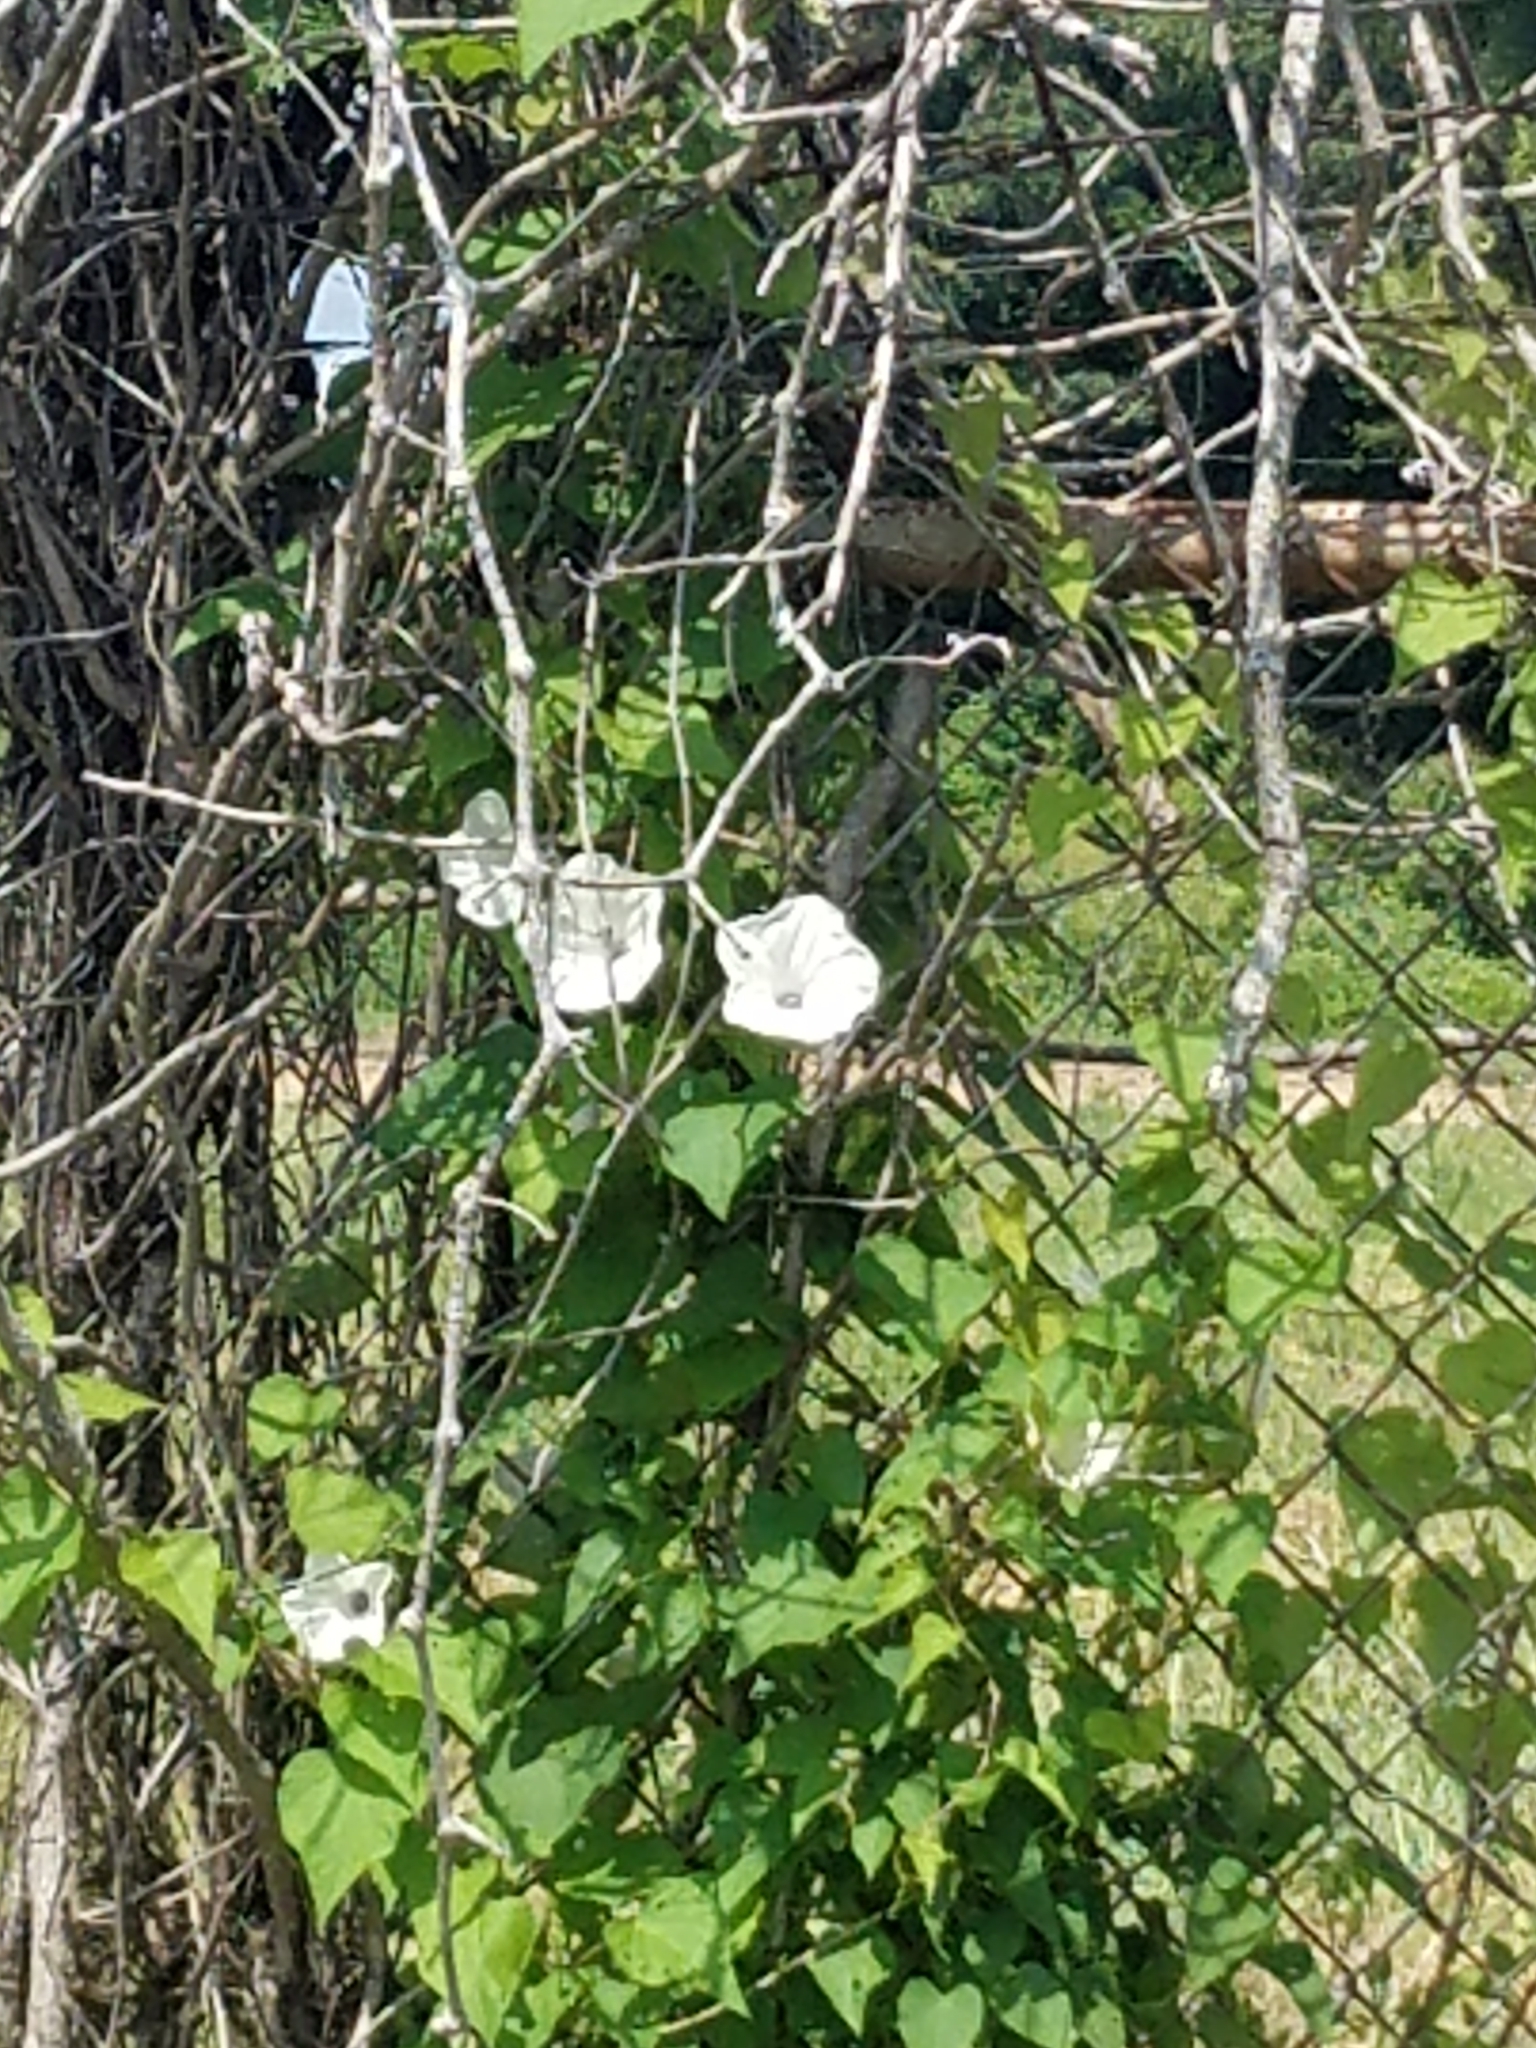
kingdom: Plantae
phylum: Tracheophyta
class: Magnoliopsida
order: Solanales
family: Convolvulaceae
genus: Ipomoea
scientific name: Ipomoea pandurata
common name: Man-of-the-earth
